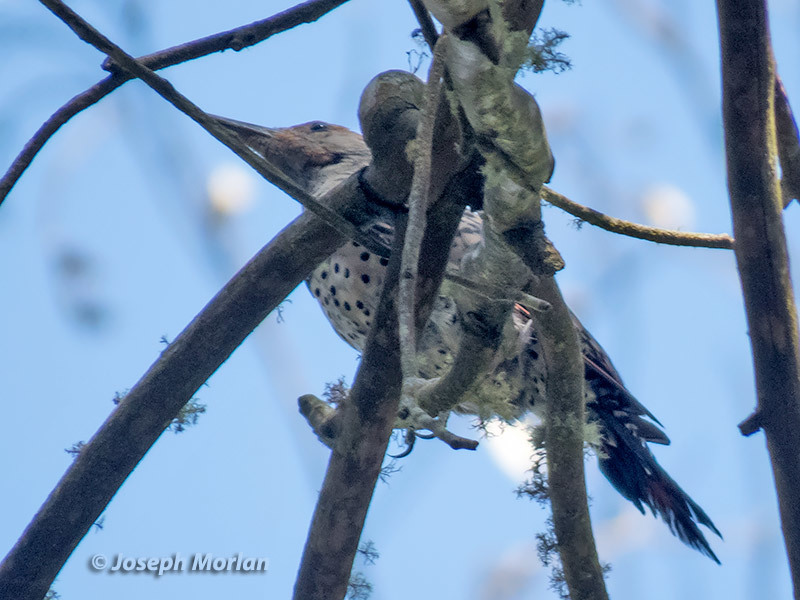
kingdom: Animalia
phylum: Chordata
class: Aves
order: Piciformes
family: Picidae
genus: Colaptes
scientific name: Colaptes auratus
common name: Northern flicker
